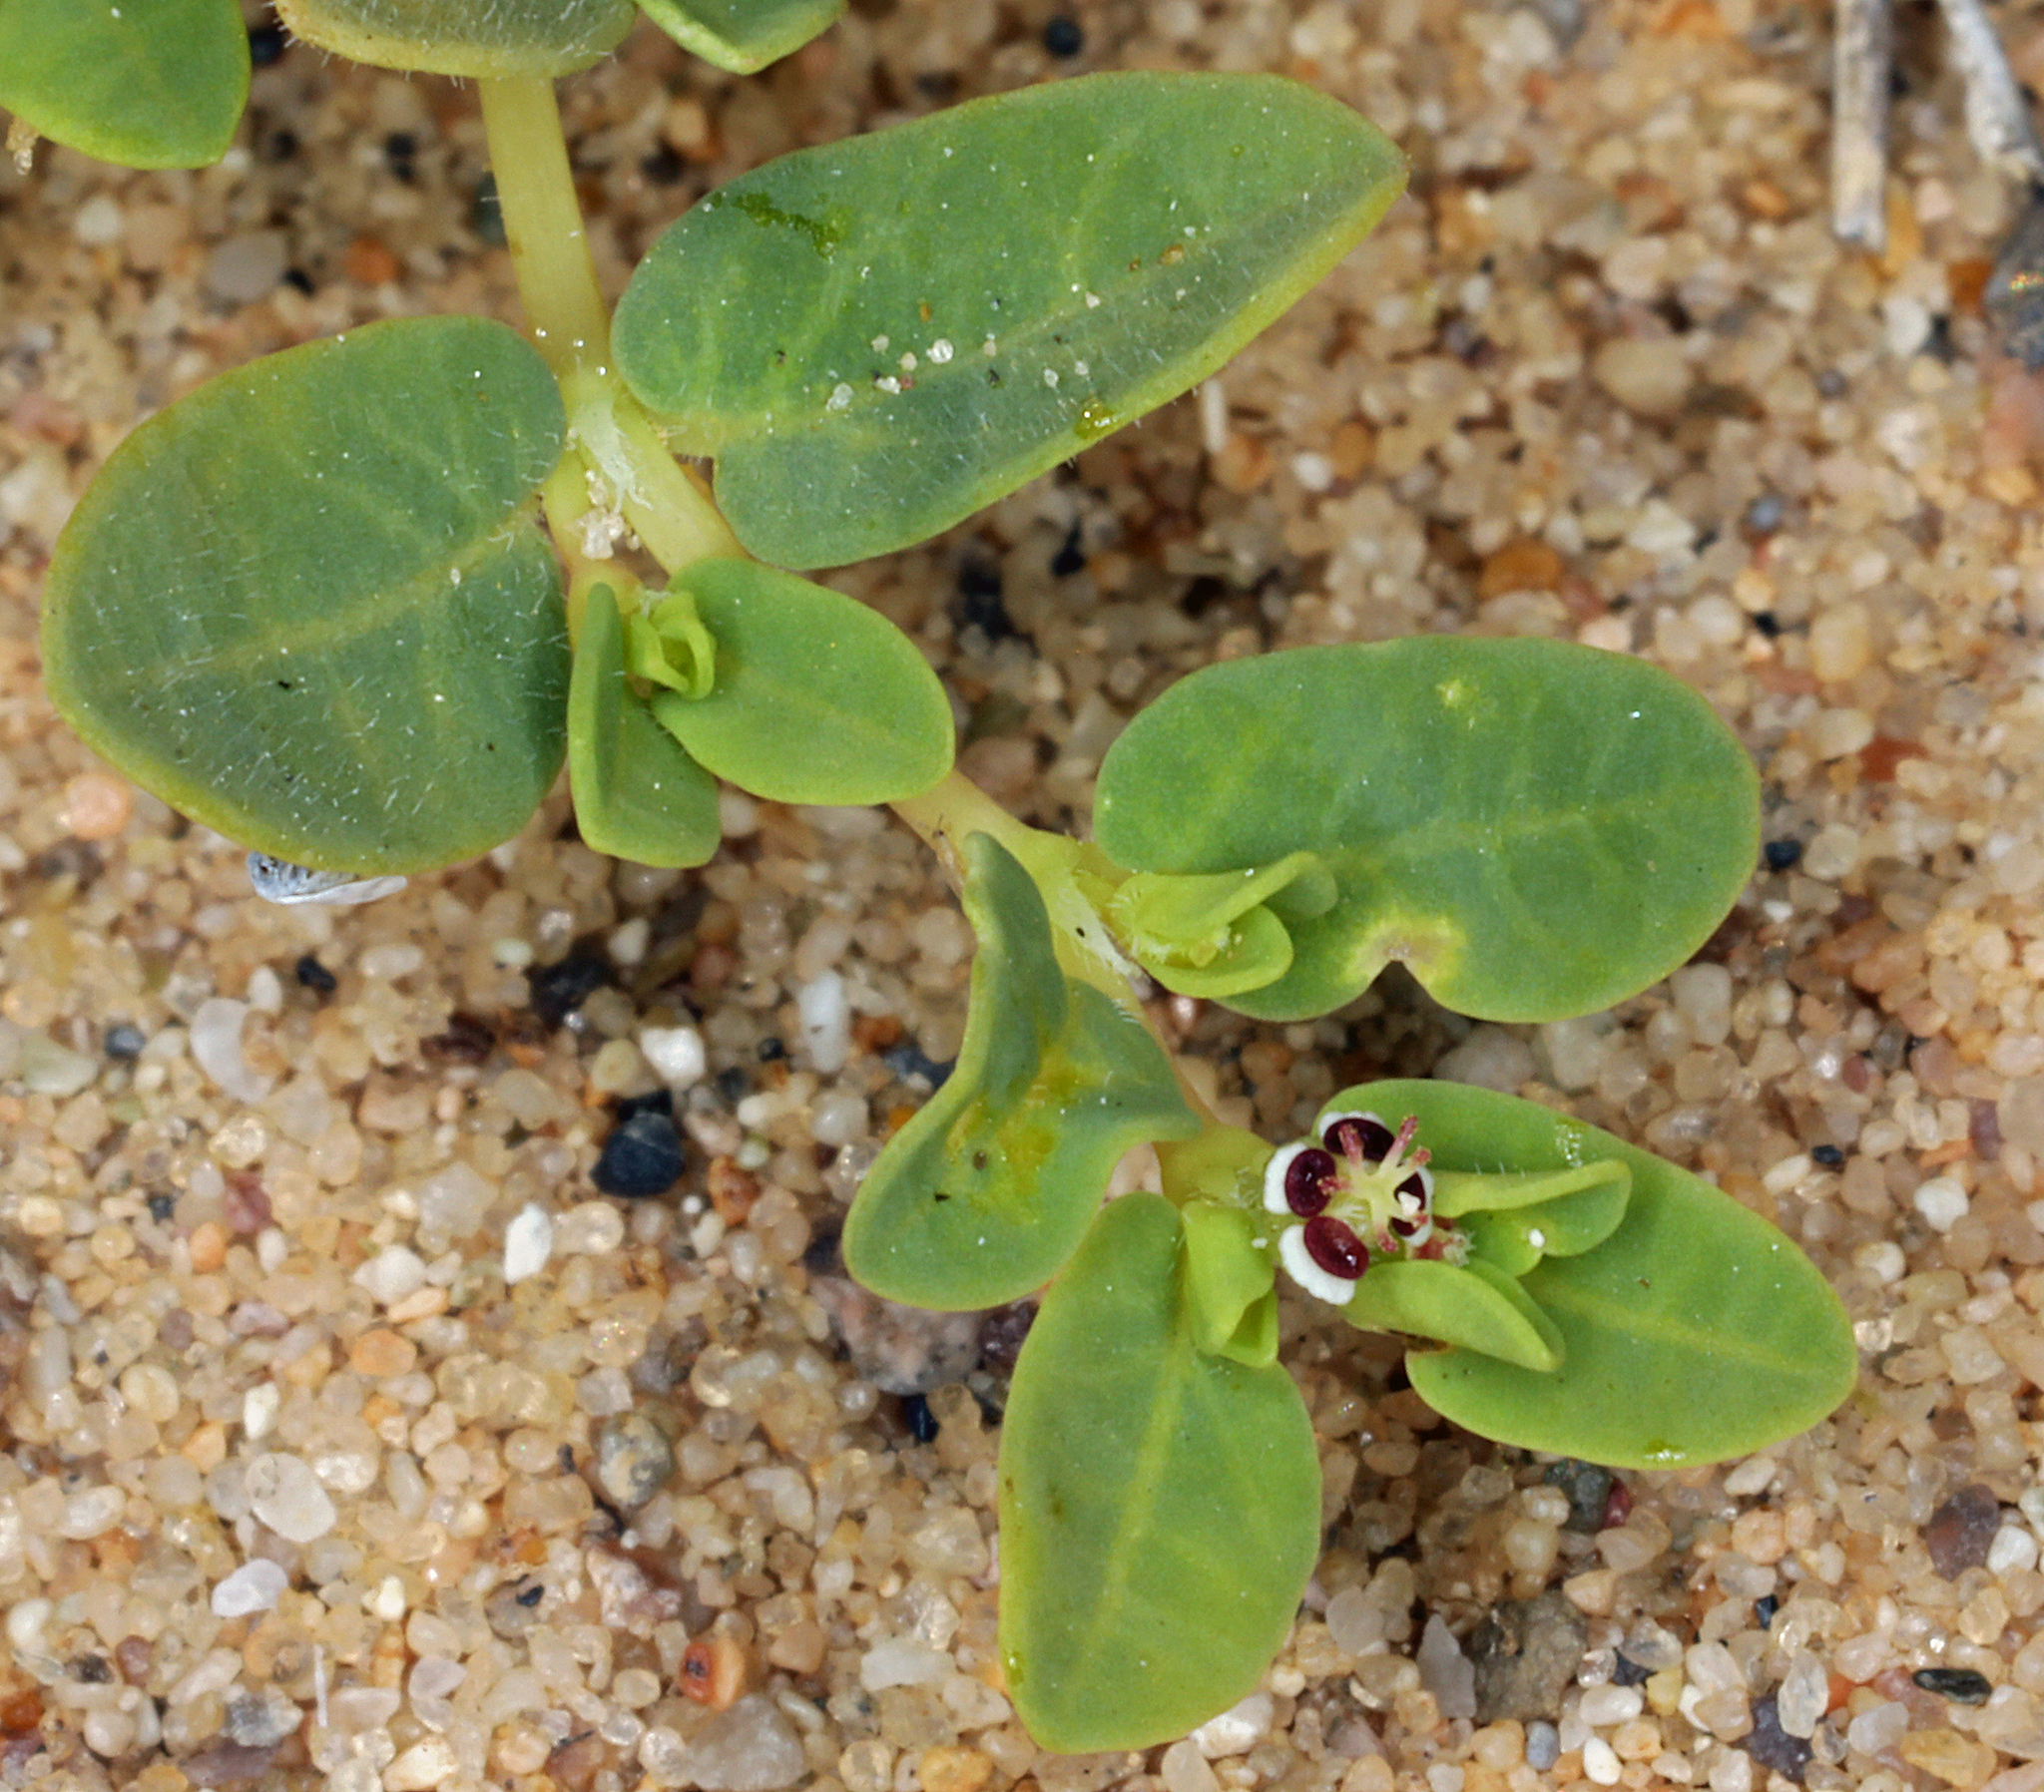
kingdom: Plantae
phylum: Tracheophyta
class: Magnoliopsida
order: Malpighiales
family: Euphorbiaceae
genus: Euphorbia
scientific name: Euphorbia polycarpa
